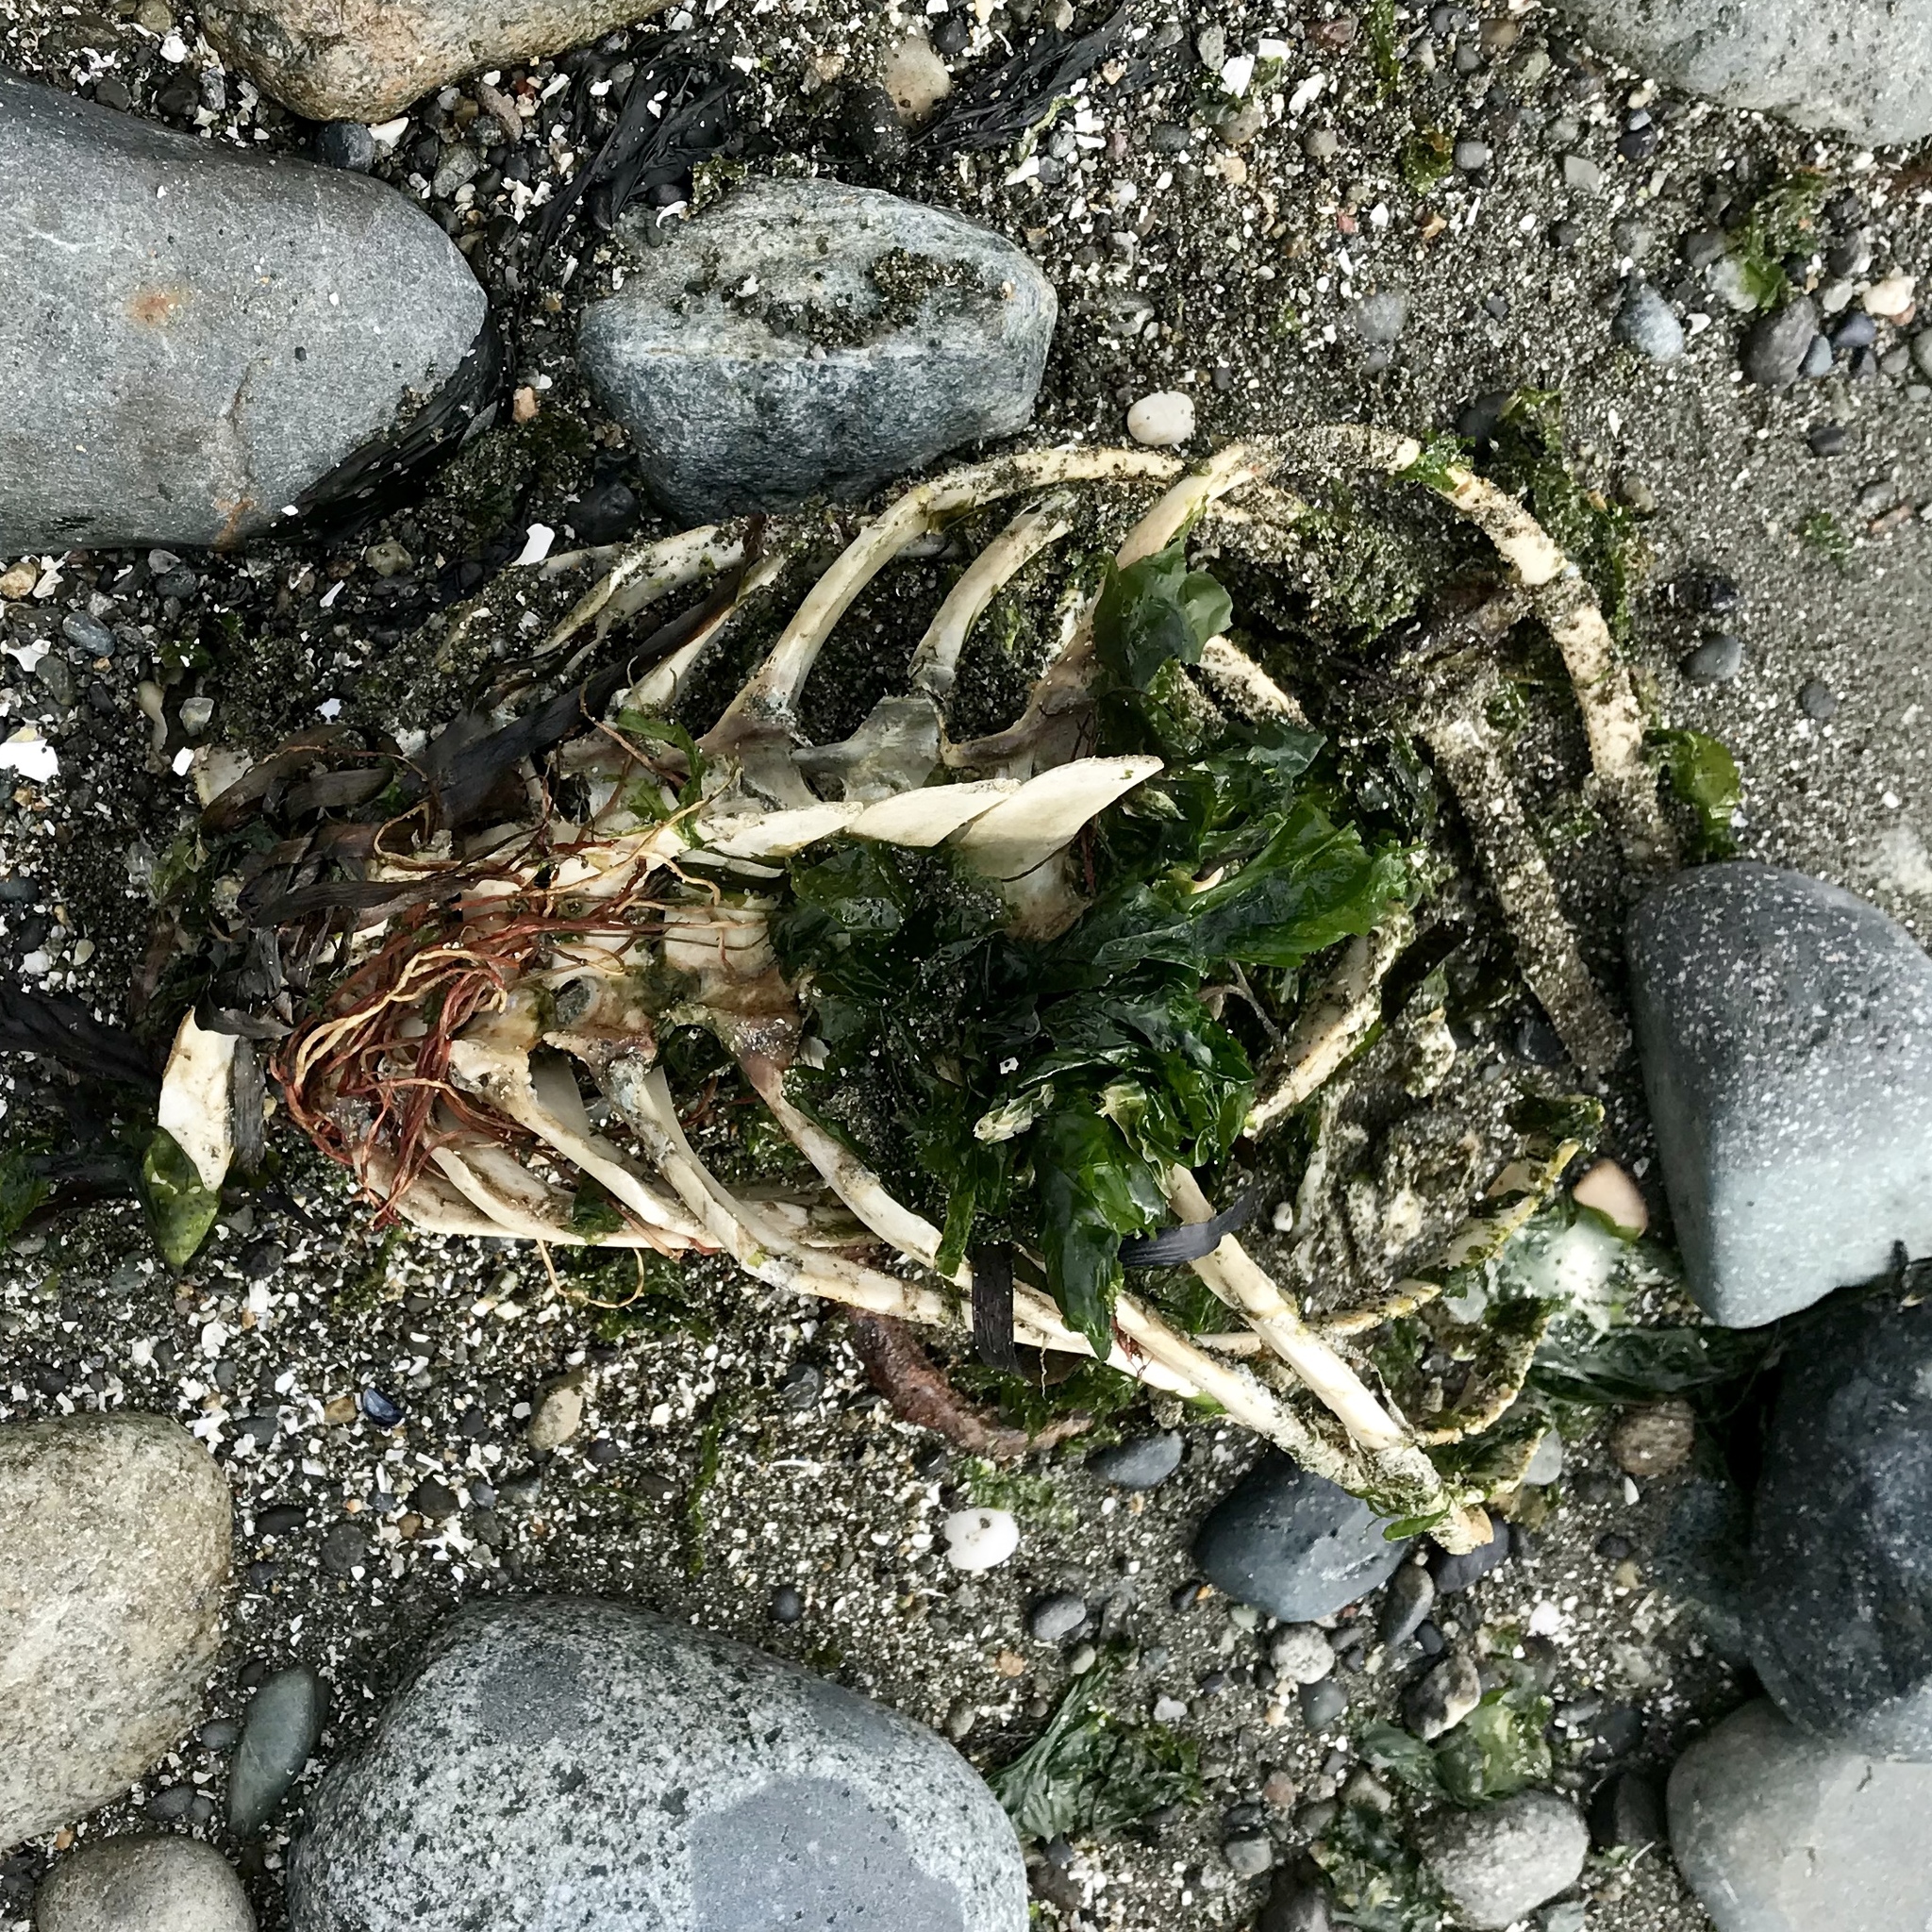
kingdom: Animalia
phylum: Chordata
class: Mammalia
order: Cetacea
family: Phocoenidae
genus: Phocoena
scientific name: Phocoena phocoena
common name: Harbor porpoise
